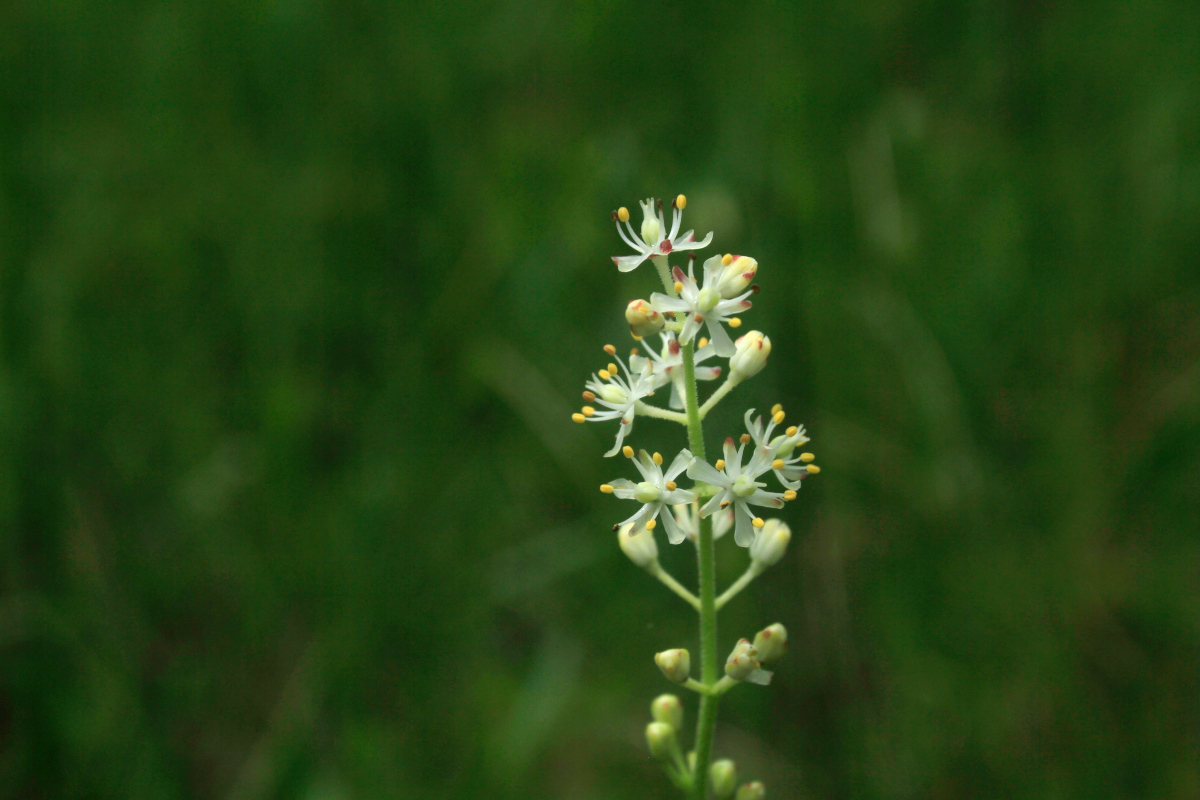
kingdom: Plantae
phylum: Tracheophyta
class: Liliopsida
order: Alismatales
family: Tofieldiaceae
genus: Triantha
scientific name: Triantha racemosa
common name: Coastal false asphodel
